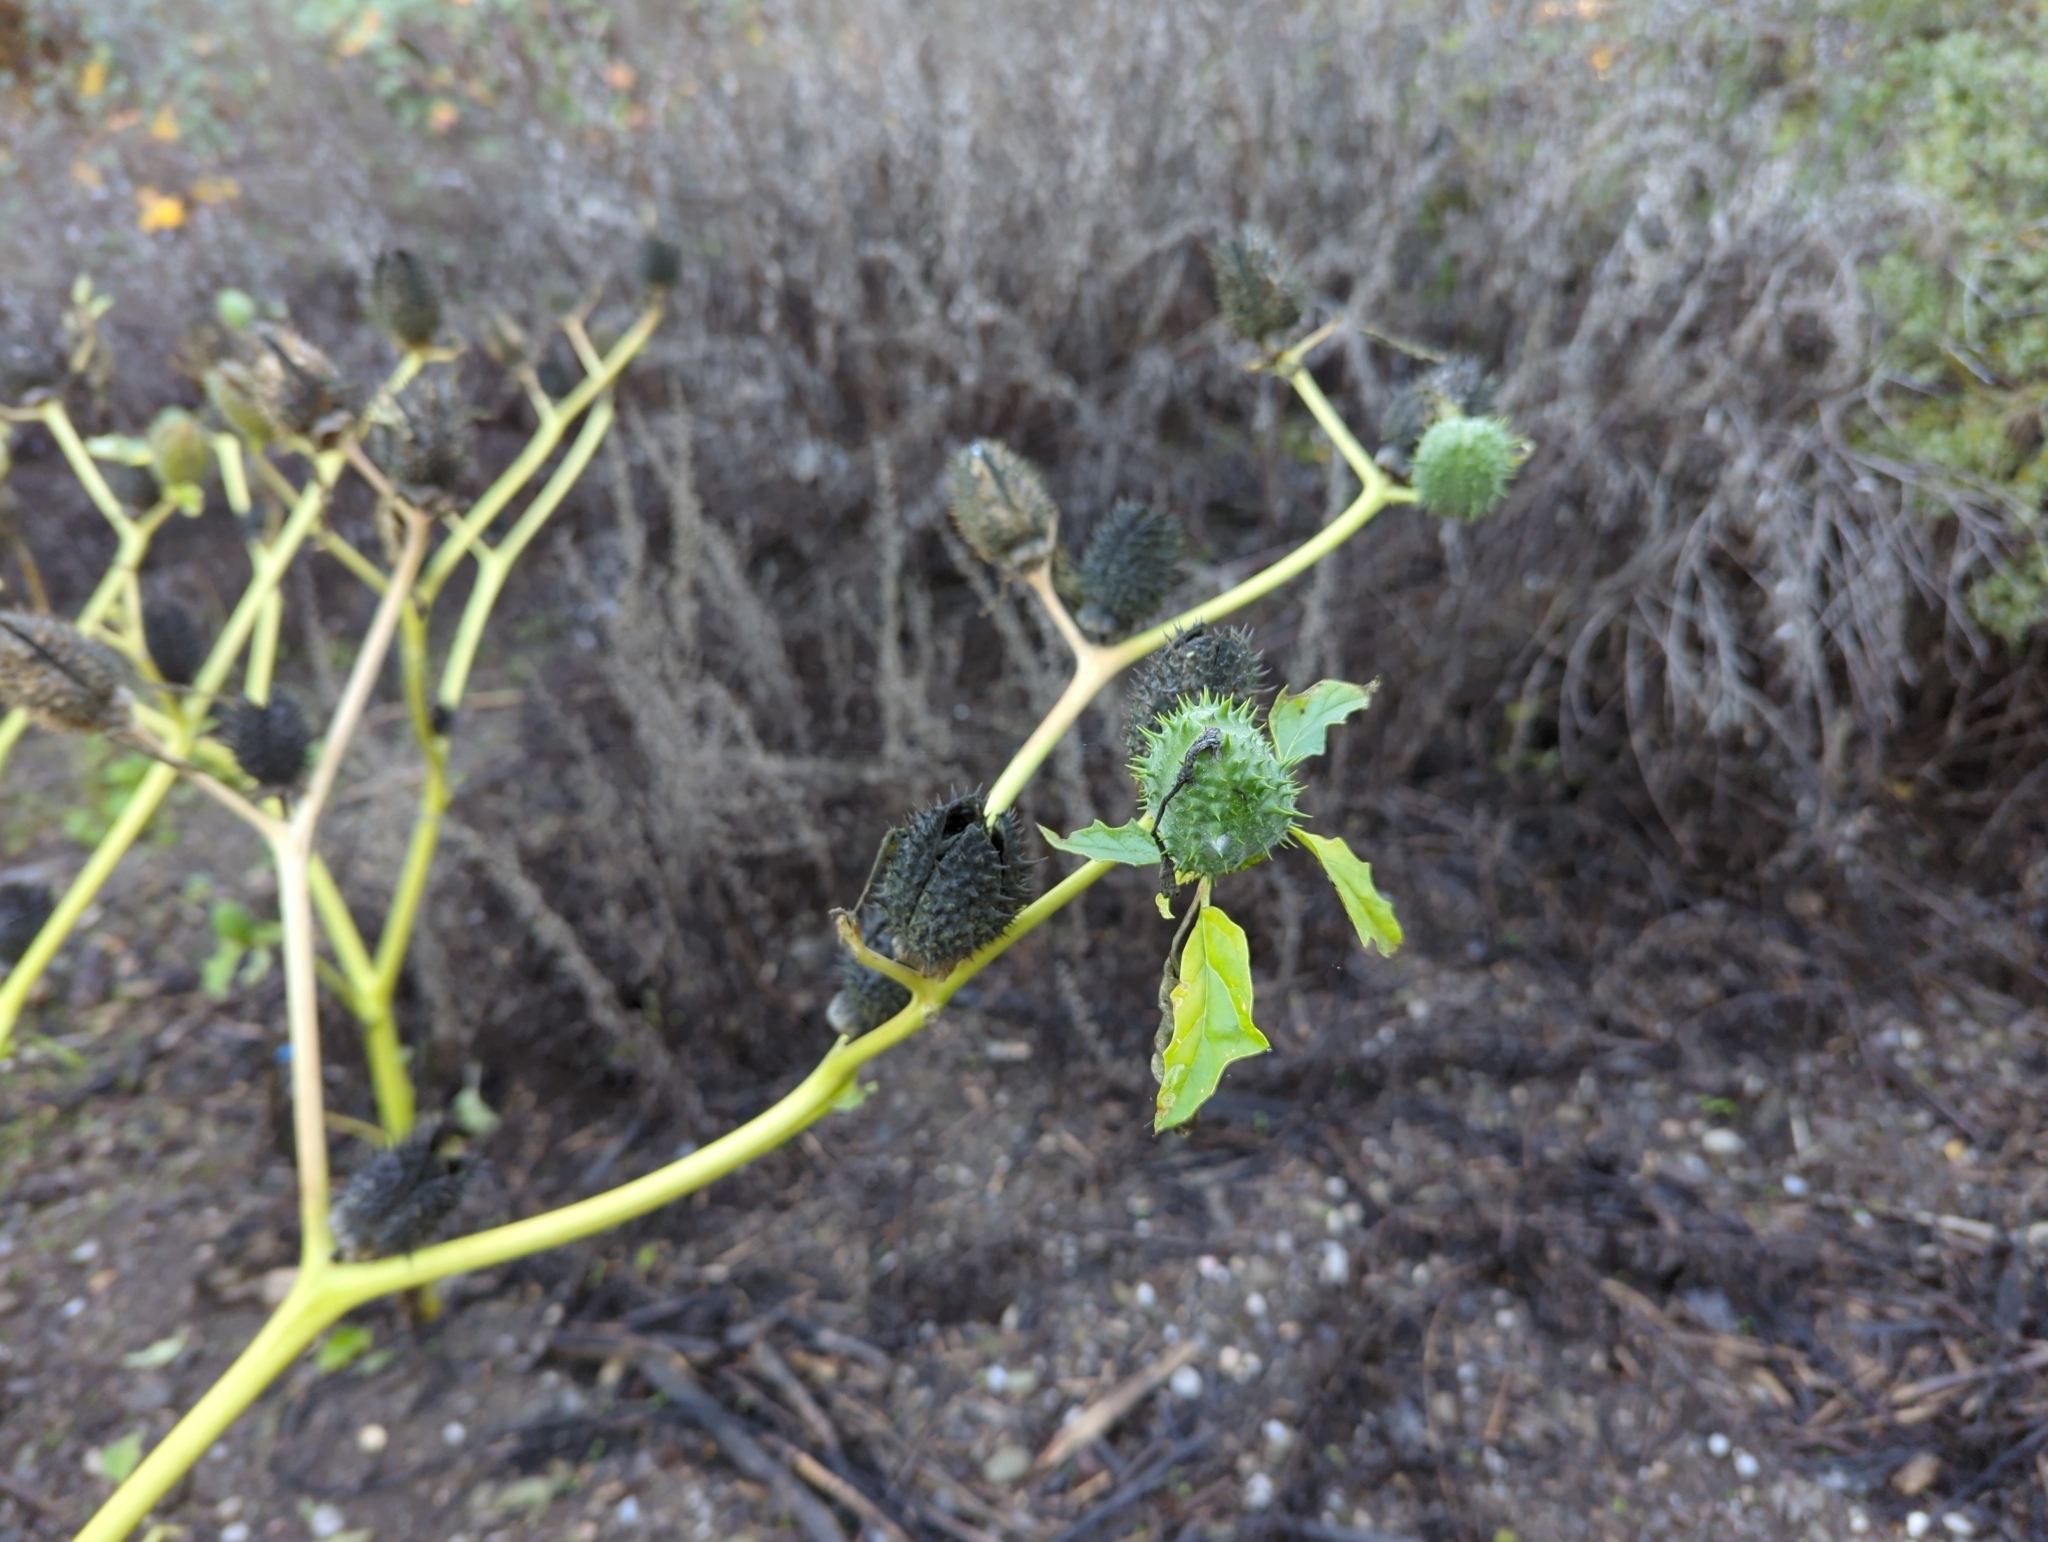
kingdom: Plantae
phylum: Tracheophyta
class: Magnoliopsida
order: Solanales
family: Solanaceae
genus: Datura
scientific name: Datura stramonium
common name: Thorn-apple
